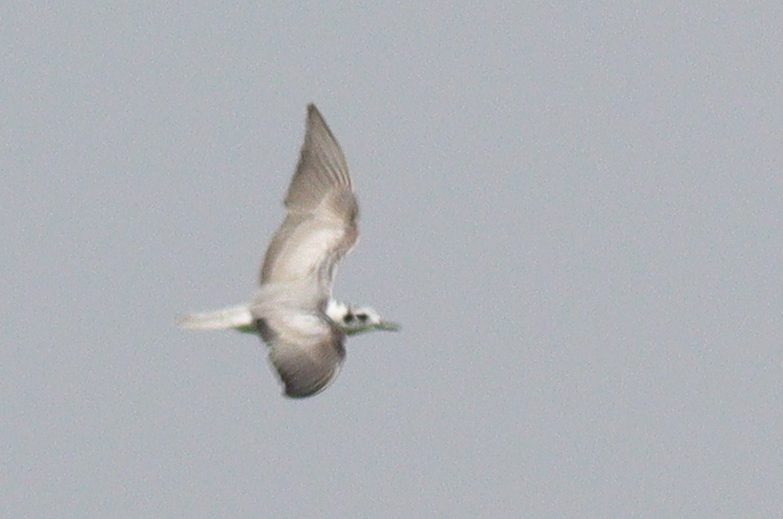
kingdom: Animalia
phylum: Chordata
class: Aves
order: Charadriiformes
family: Laridae
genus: Chlidonias
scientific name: Chlidonias leucopterus
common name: White-winged tern
